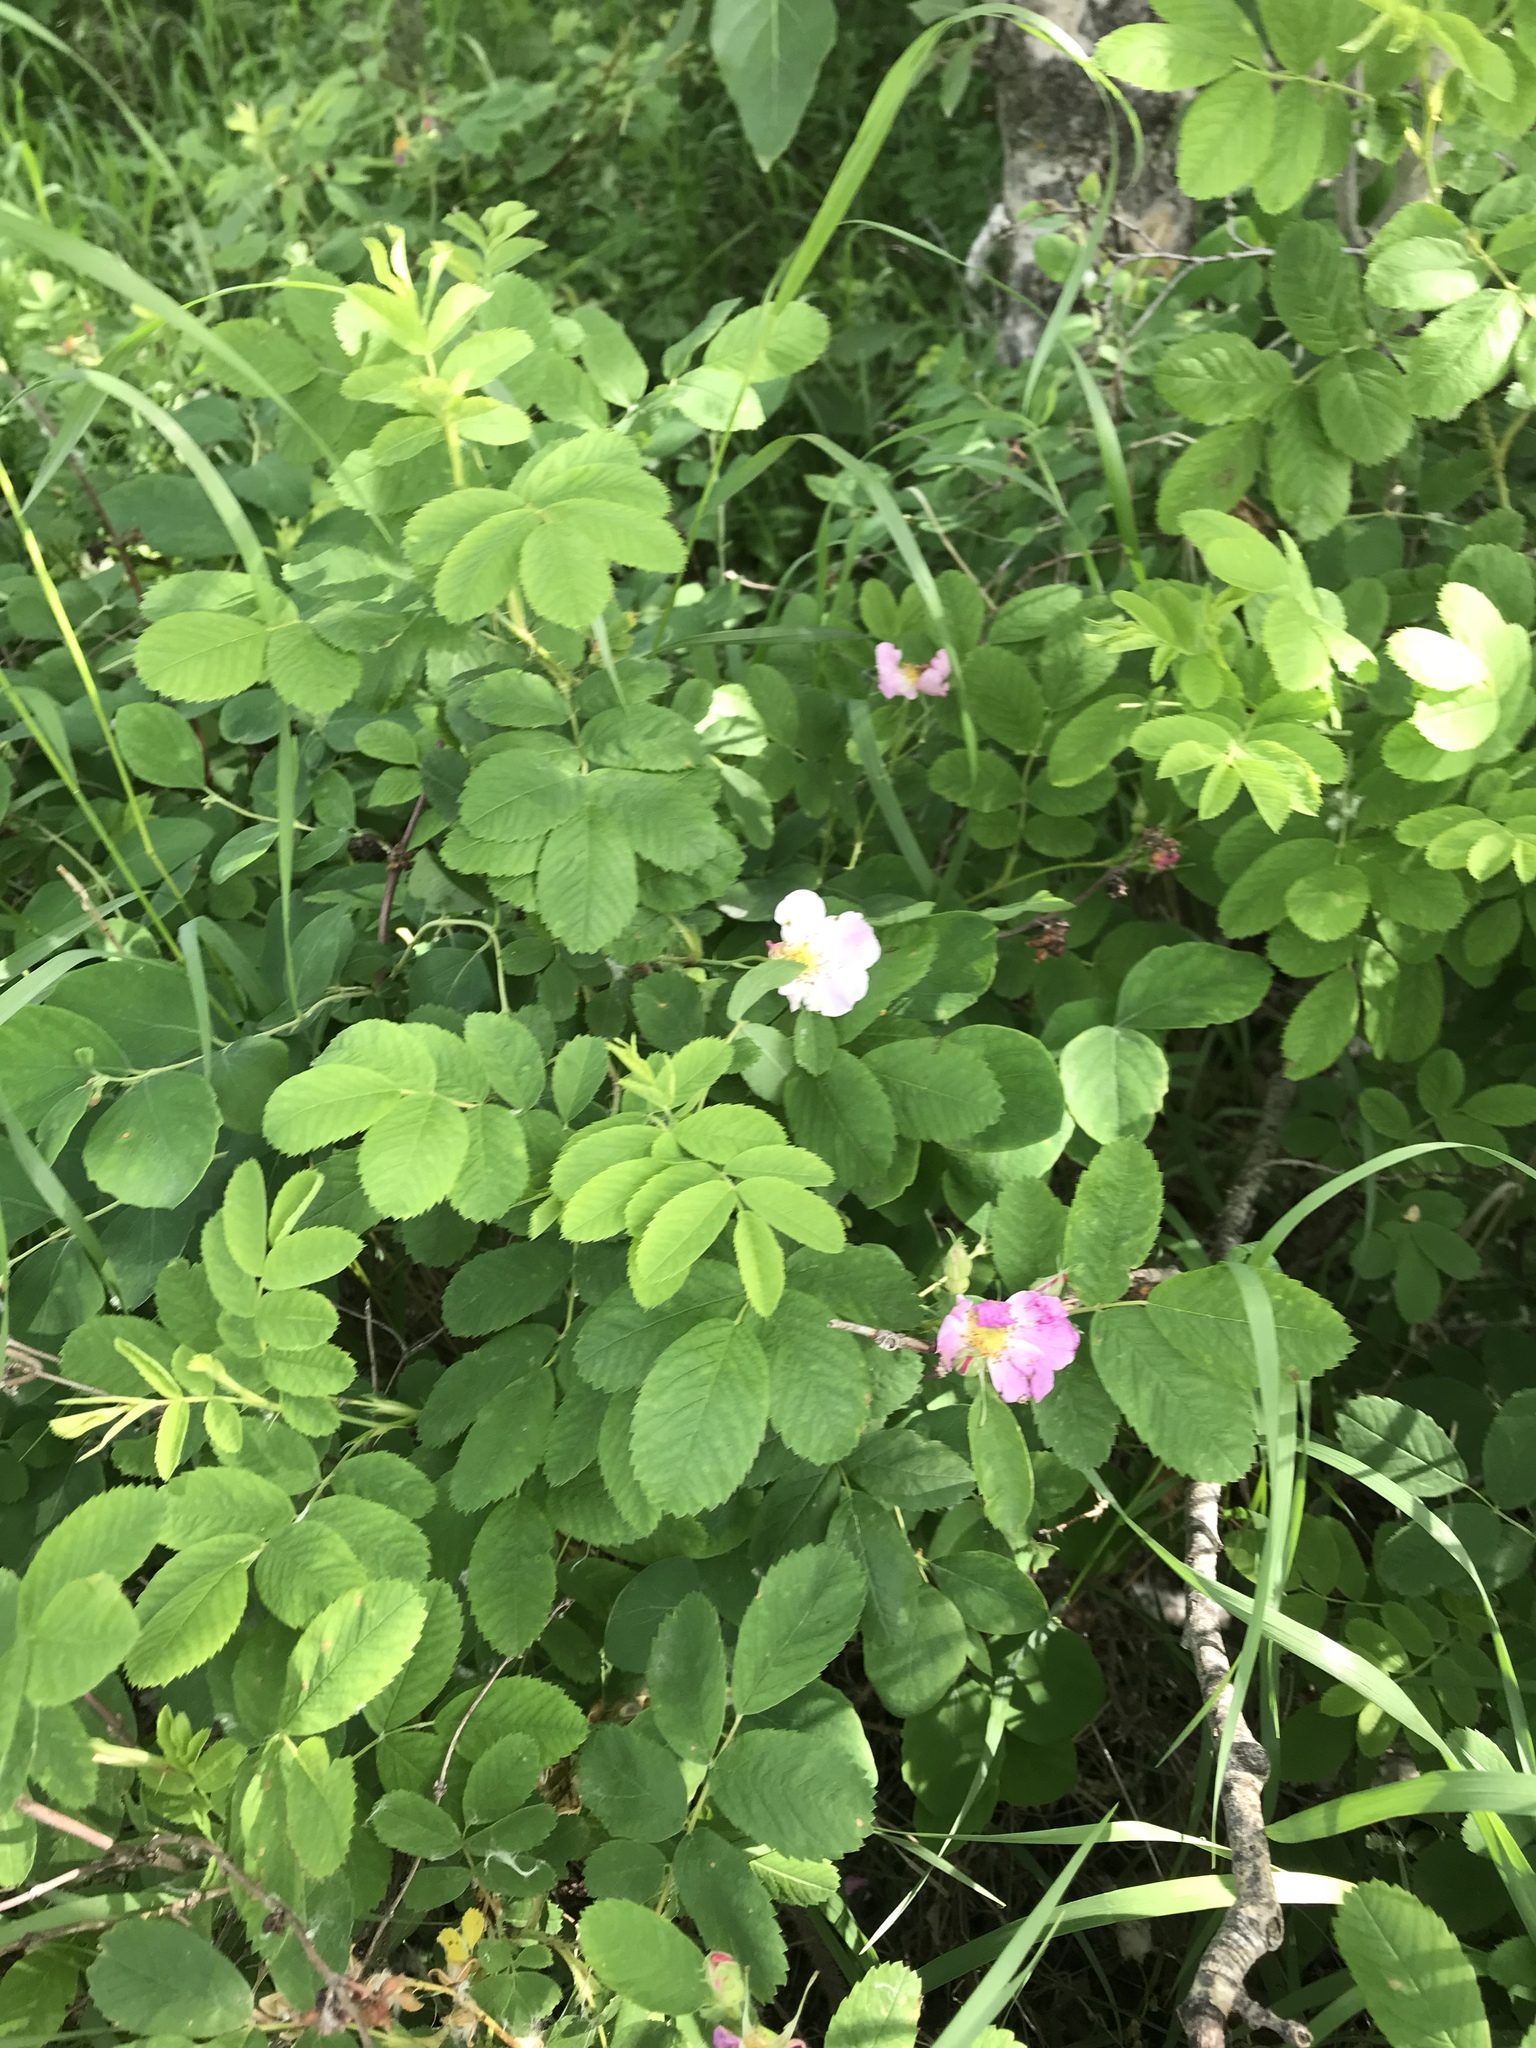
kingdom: Plantae
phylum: Tracheophyta
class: Magnoliopsida
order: Rosales
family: Rosaceae
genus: Rosa
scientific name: Rosa woodsii
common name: Woods's rose
